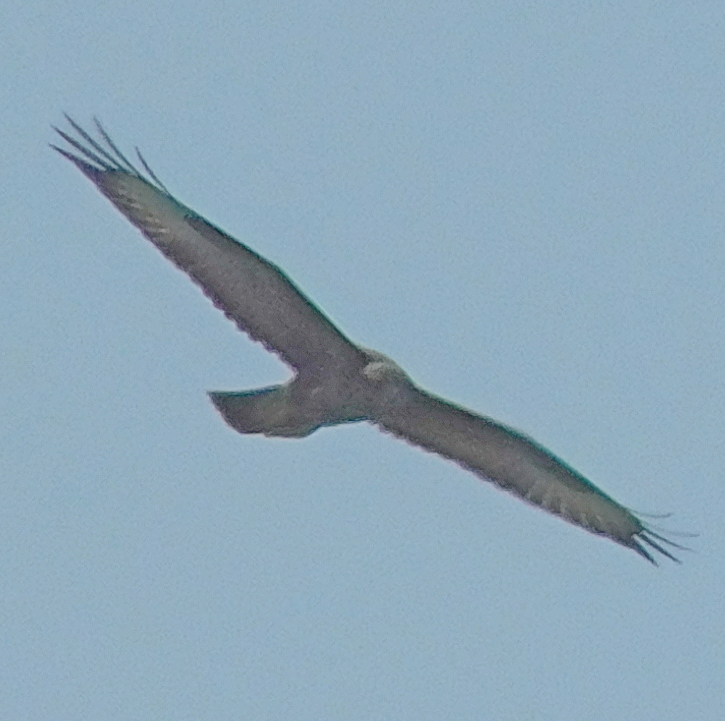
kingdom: Animalia
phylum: Chordata
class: Aves
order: Accipitriformes
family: Accipitridae
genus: Buteo
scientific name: Buteo buteo
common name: Common buzzard
